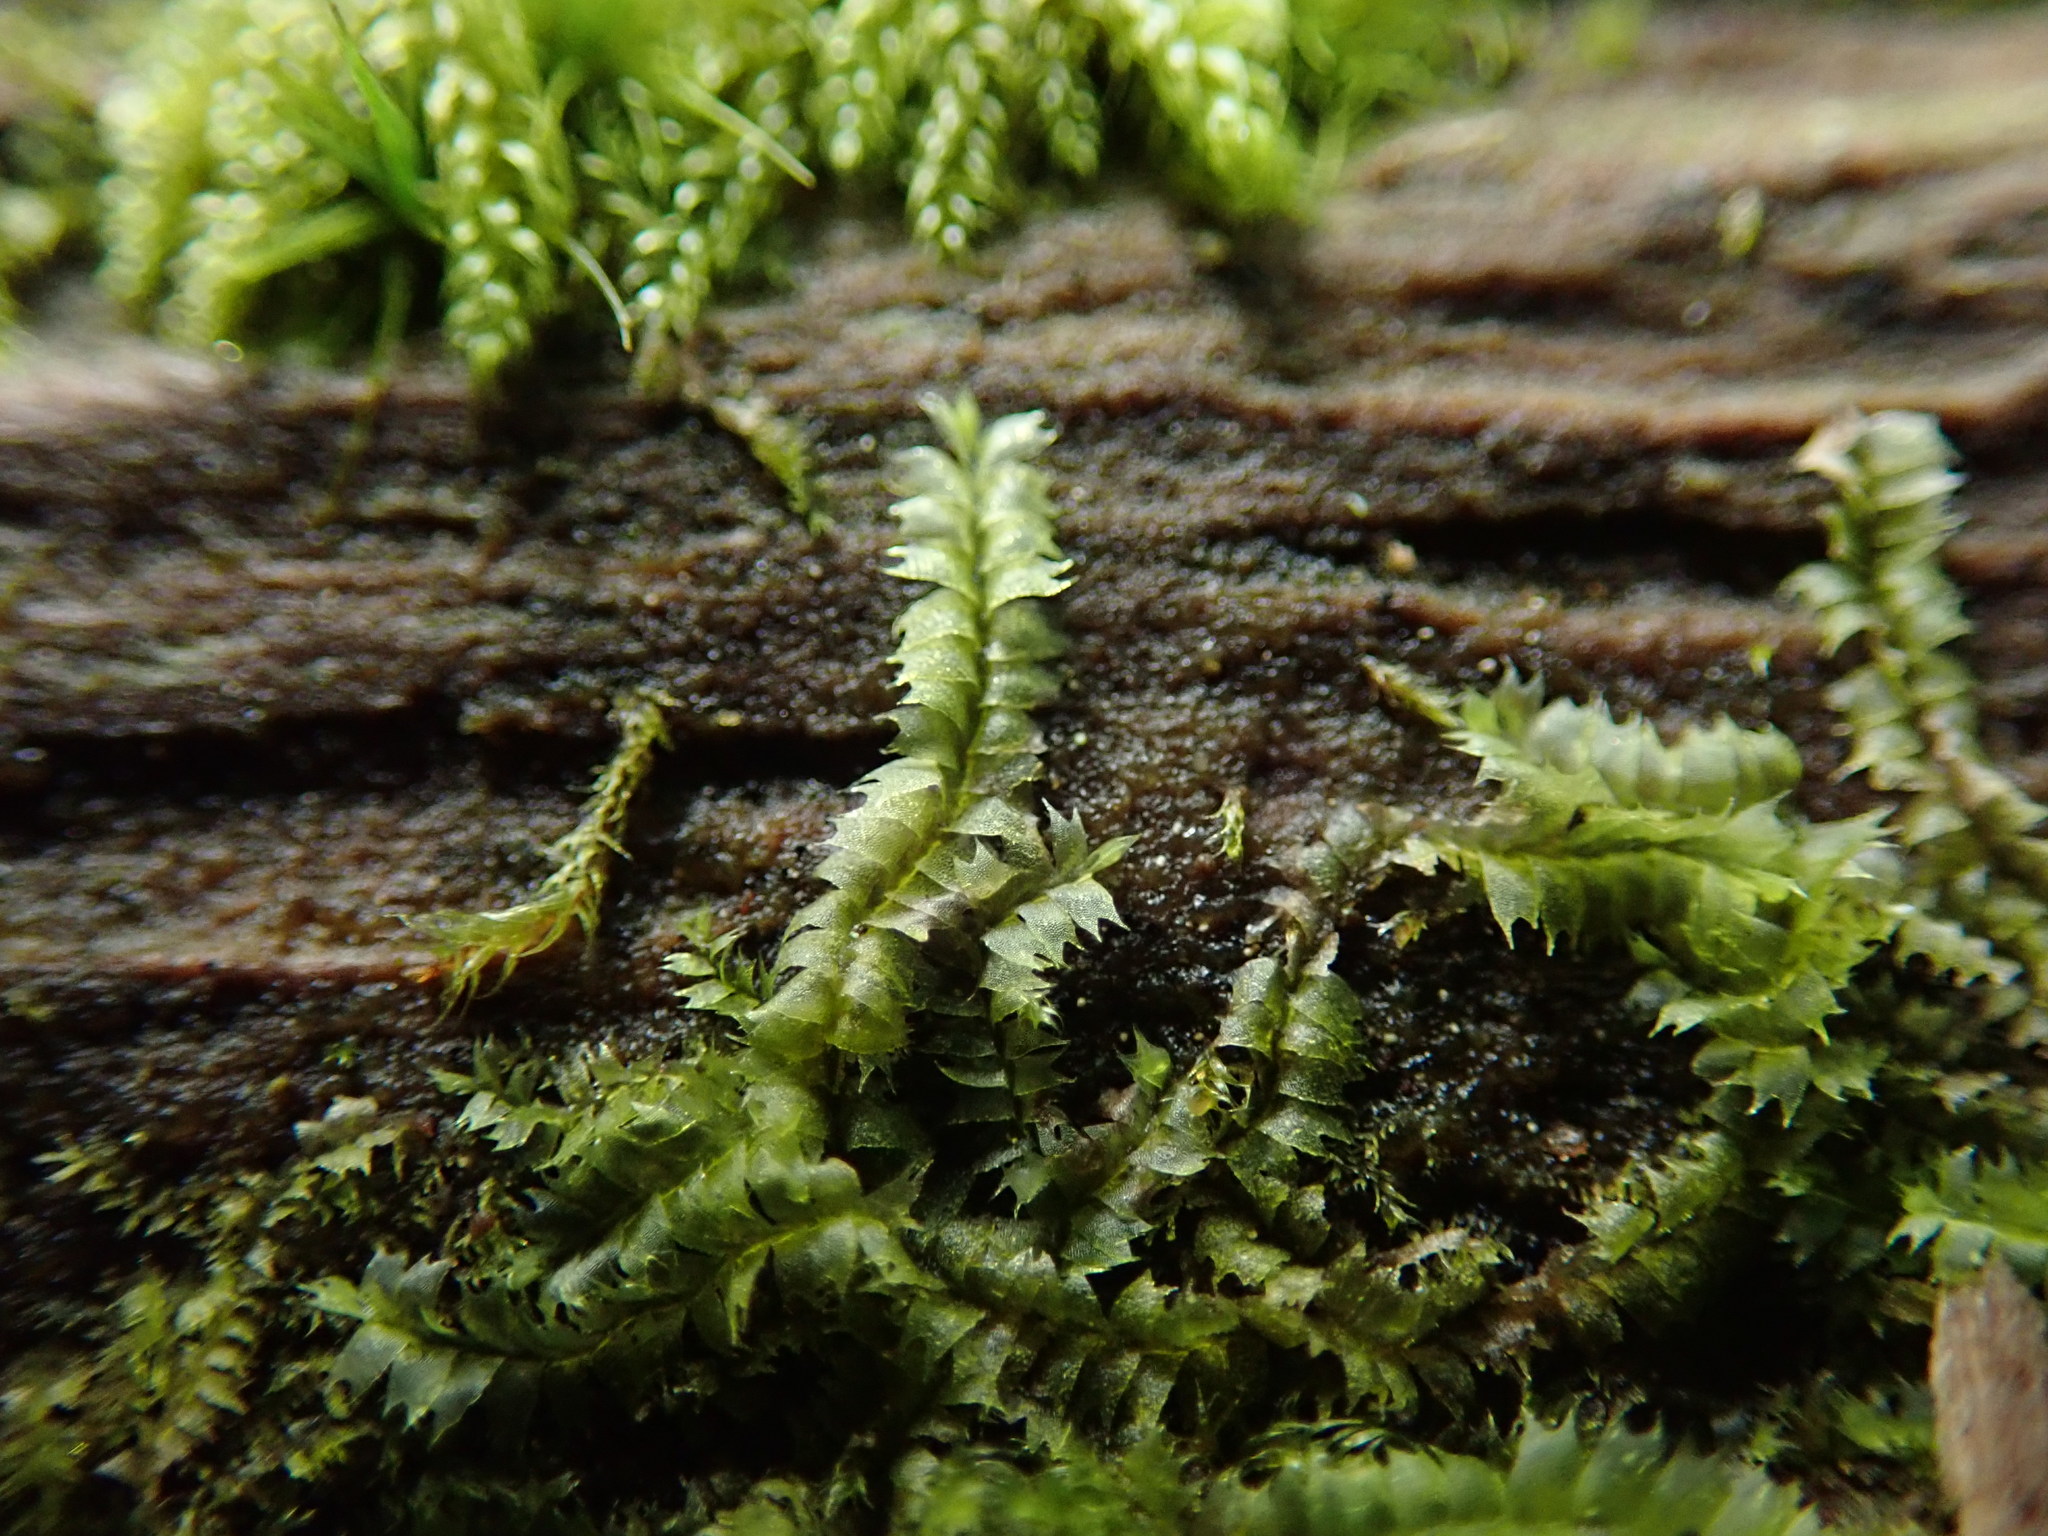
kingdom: Plantae
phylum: Marchantiophyta
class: Jungermanniopsida
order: Jungermanniales
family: Lophocoleaceae
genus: Lophocolea
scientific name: Lophocolea bidentata
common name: Bifid crestwort
